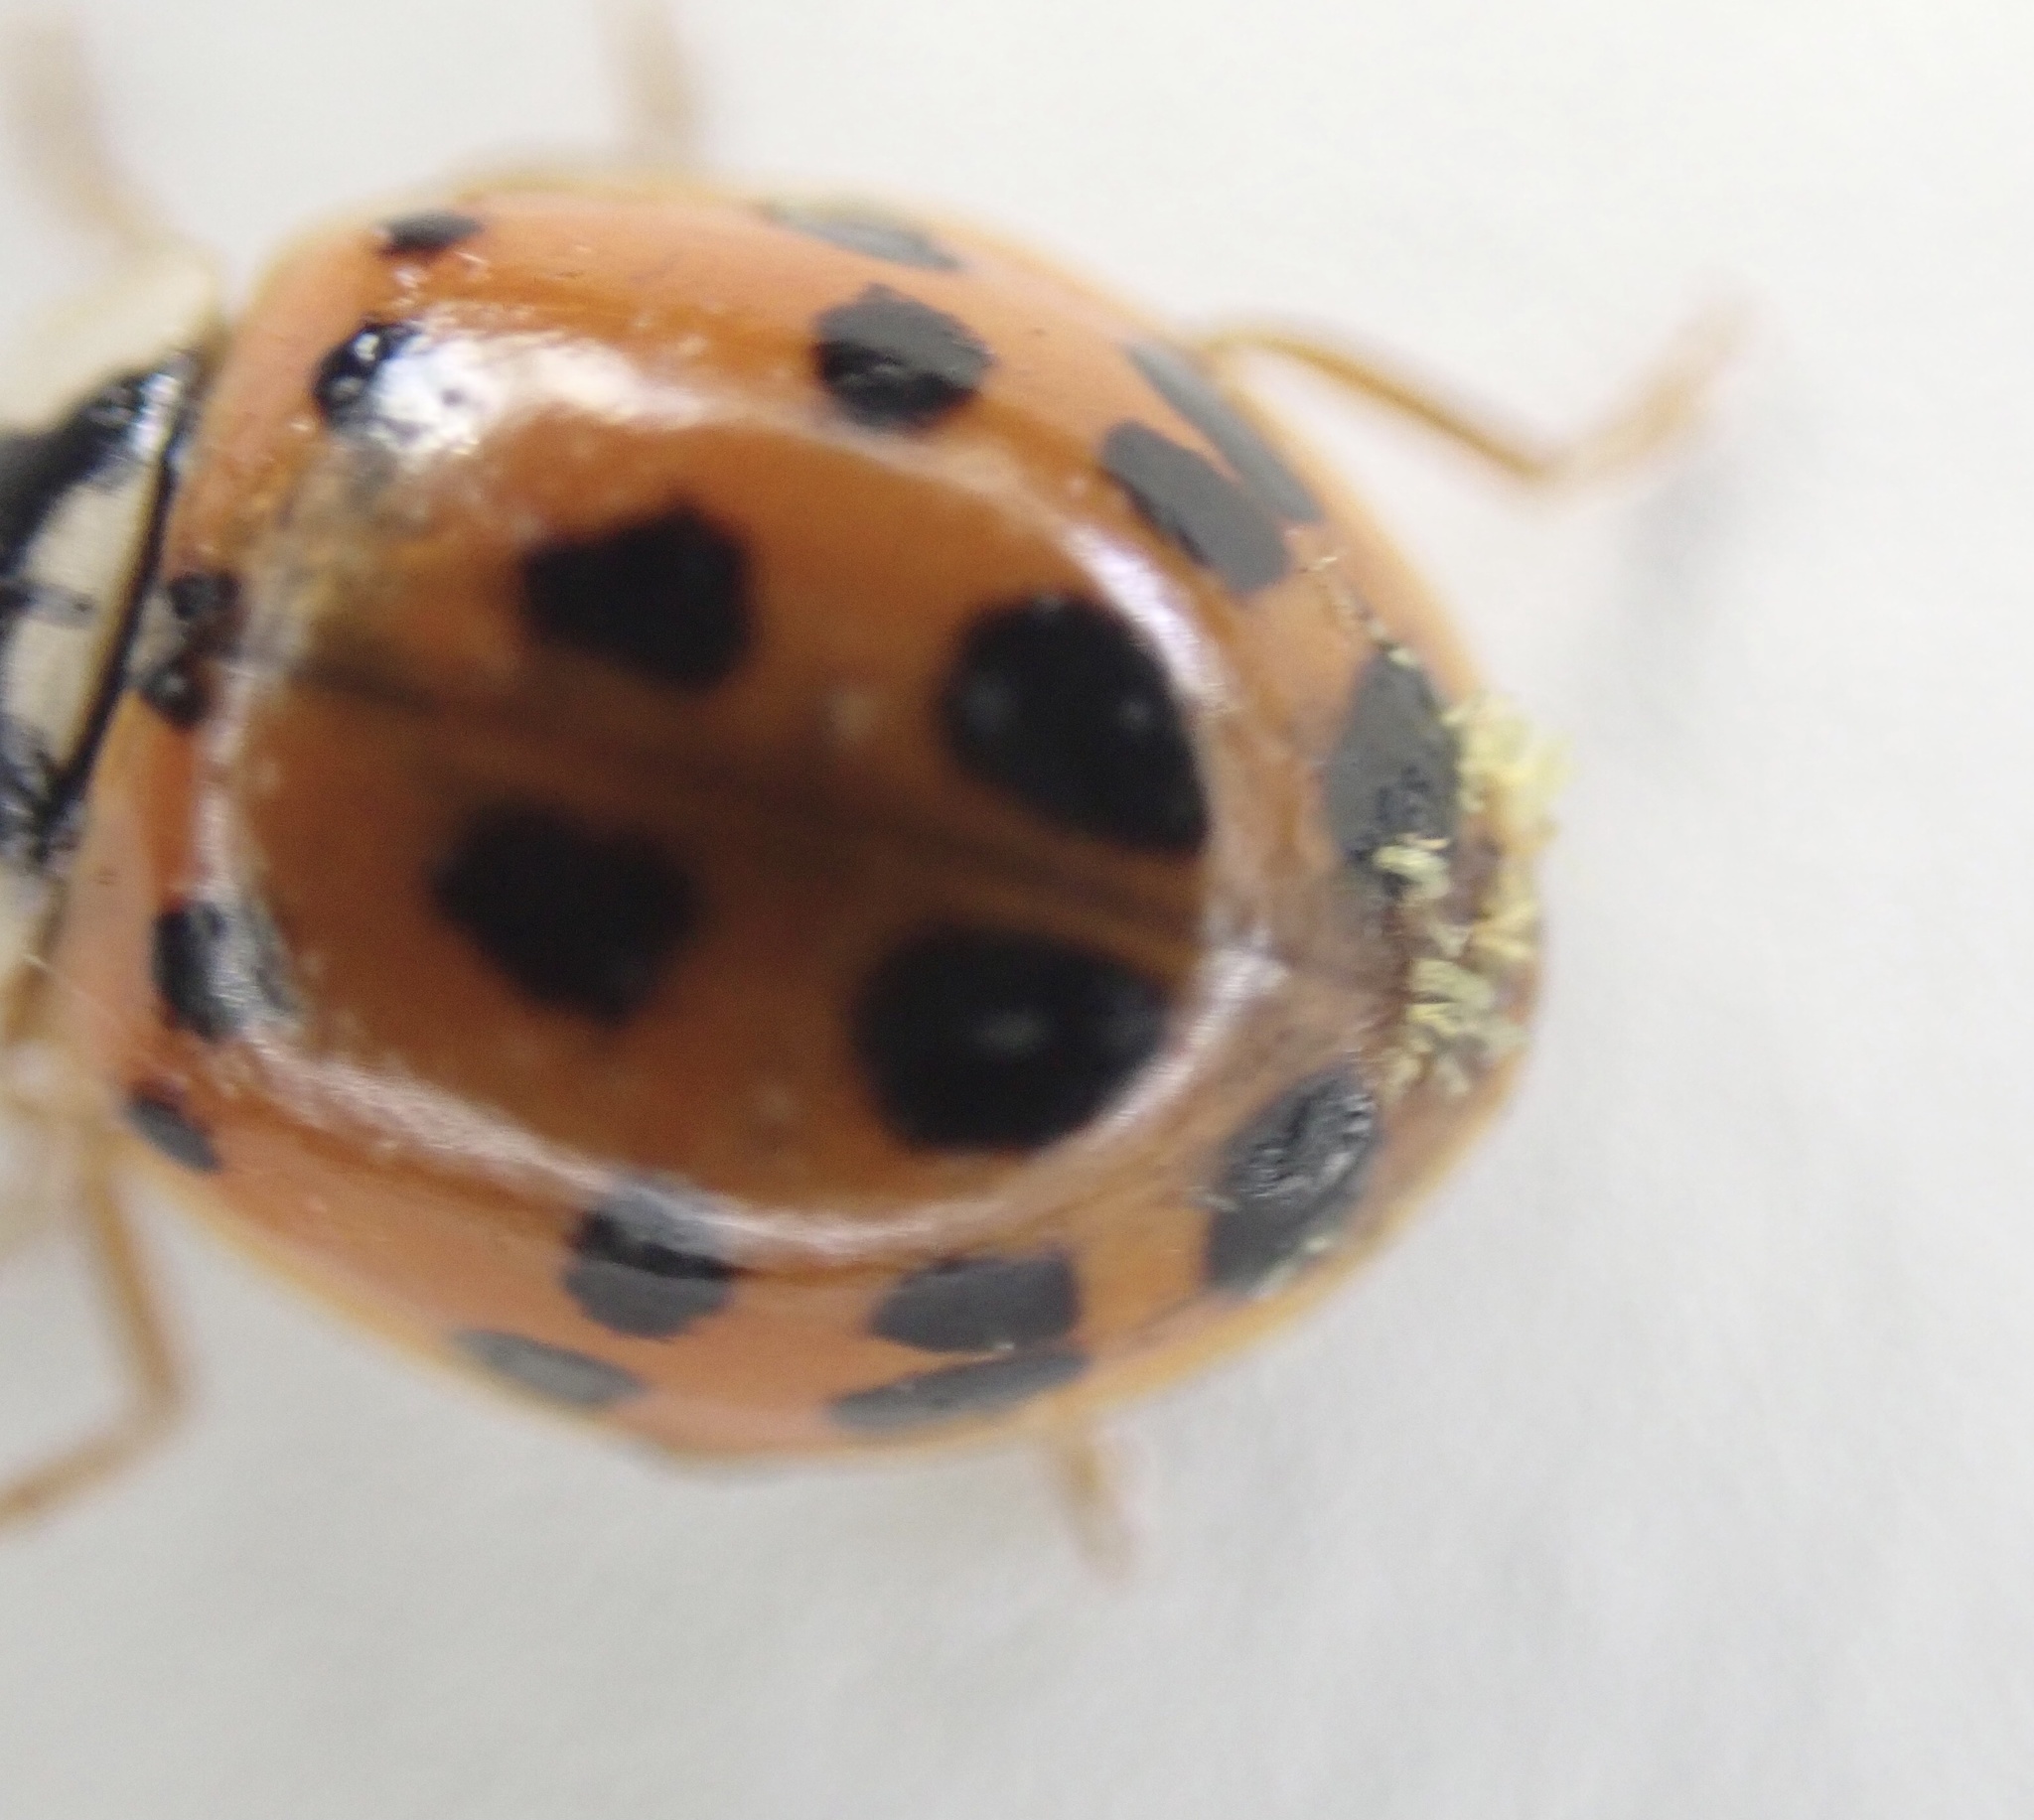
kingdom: Fungi
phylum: Ascomycota
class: Laboulbeniomycetes
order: Laboulbeniales
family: Laboulbeniaceae
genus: Hesperomyces
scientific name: Hesperomyces harmoniae
